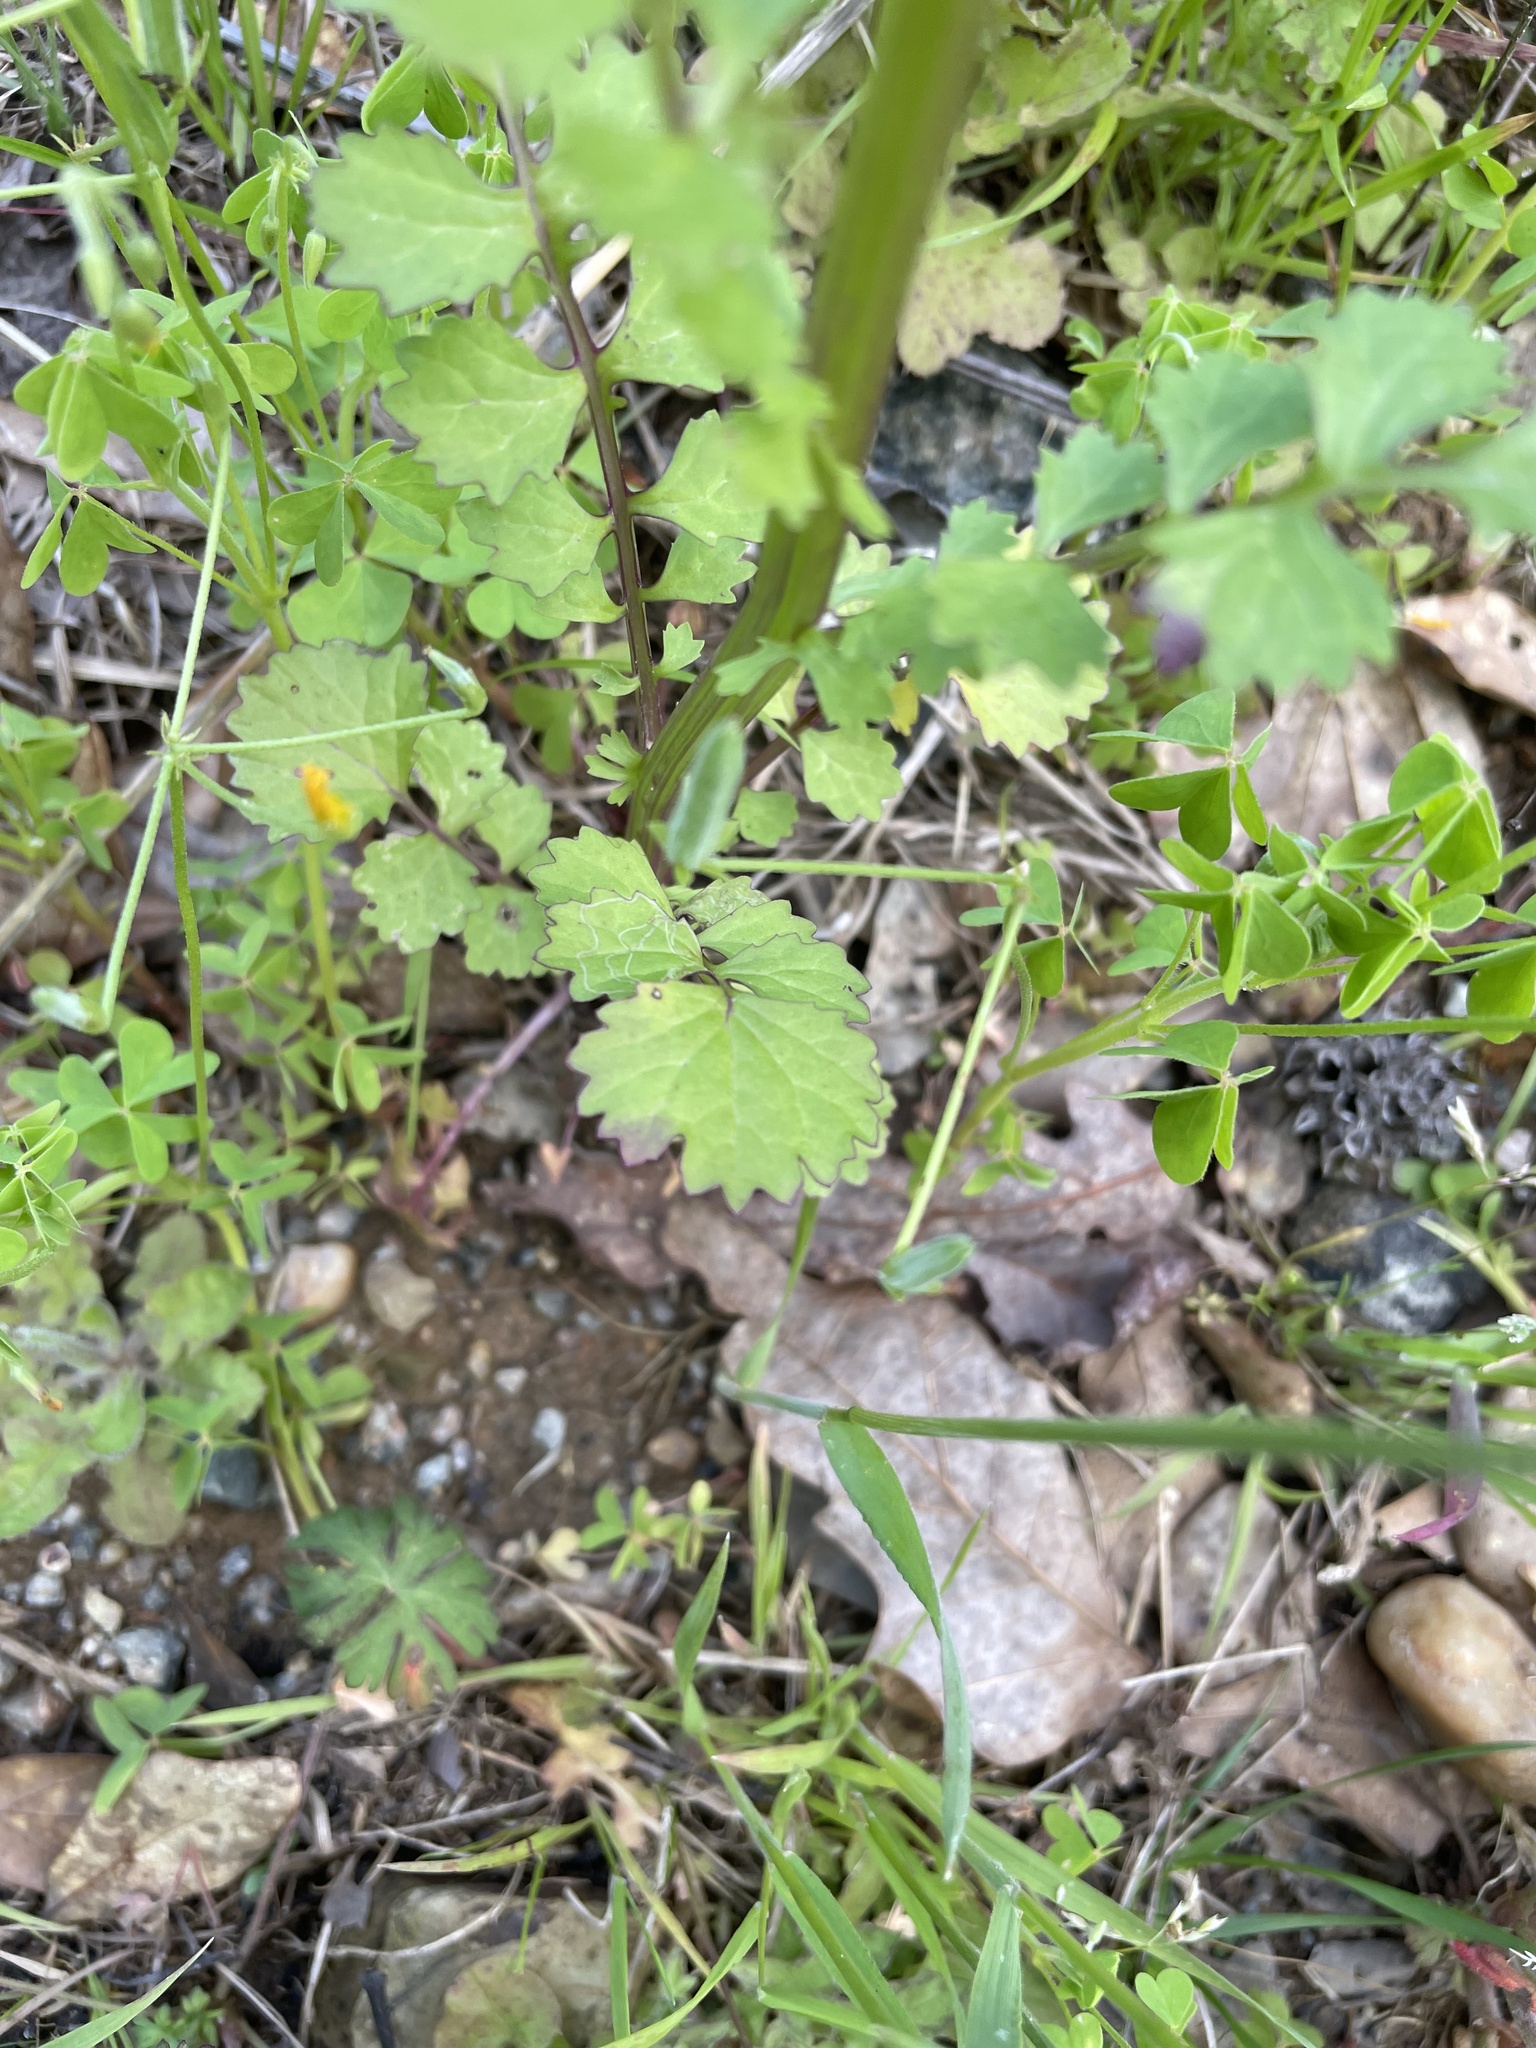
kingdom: Plantae
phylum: Tracheophyta
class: Magnoliopsida
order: Asterales
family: Asteraceae
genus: Packera
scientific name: Packera glabella
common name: Butterweed
